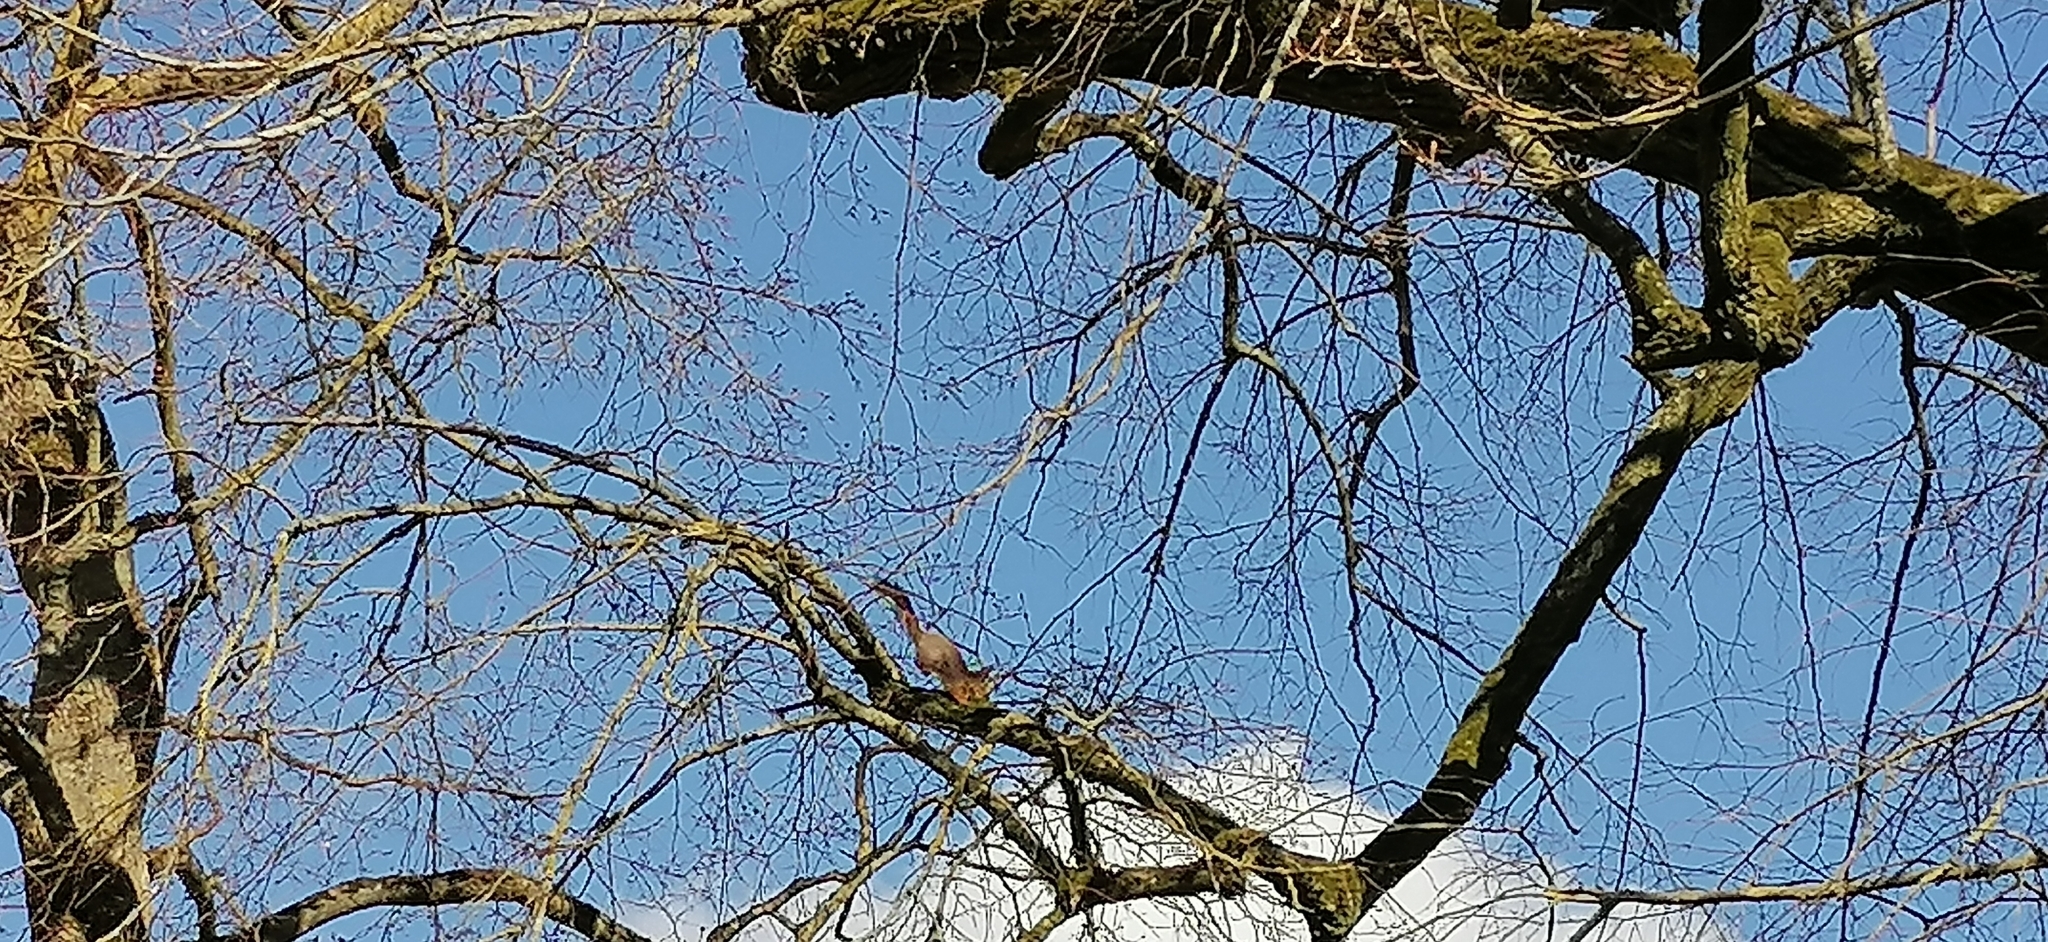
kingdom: Animalia
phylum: Chordata
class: Mammalia
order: Rodentia
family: Sciuridae
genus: Sciurus
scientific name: Sciurus vulgaris
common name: Eurasian red squirrel
